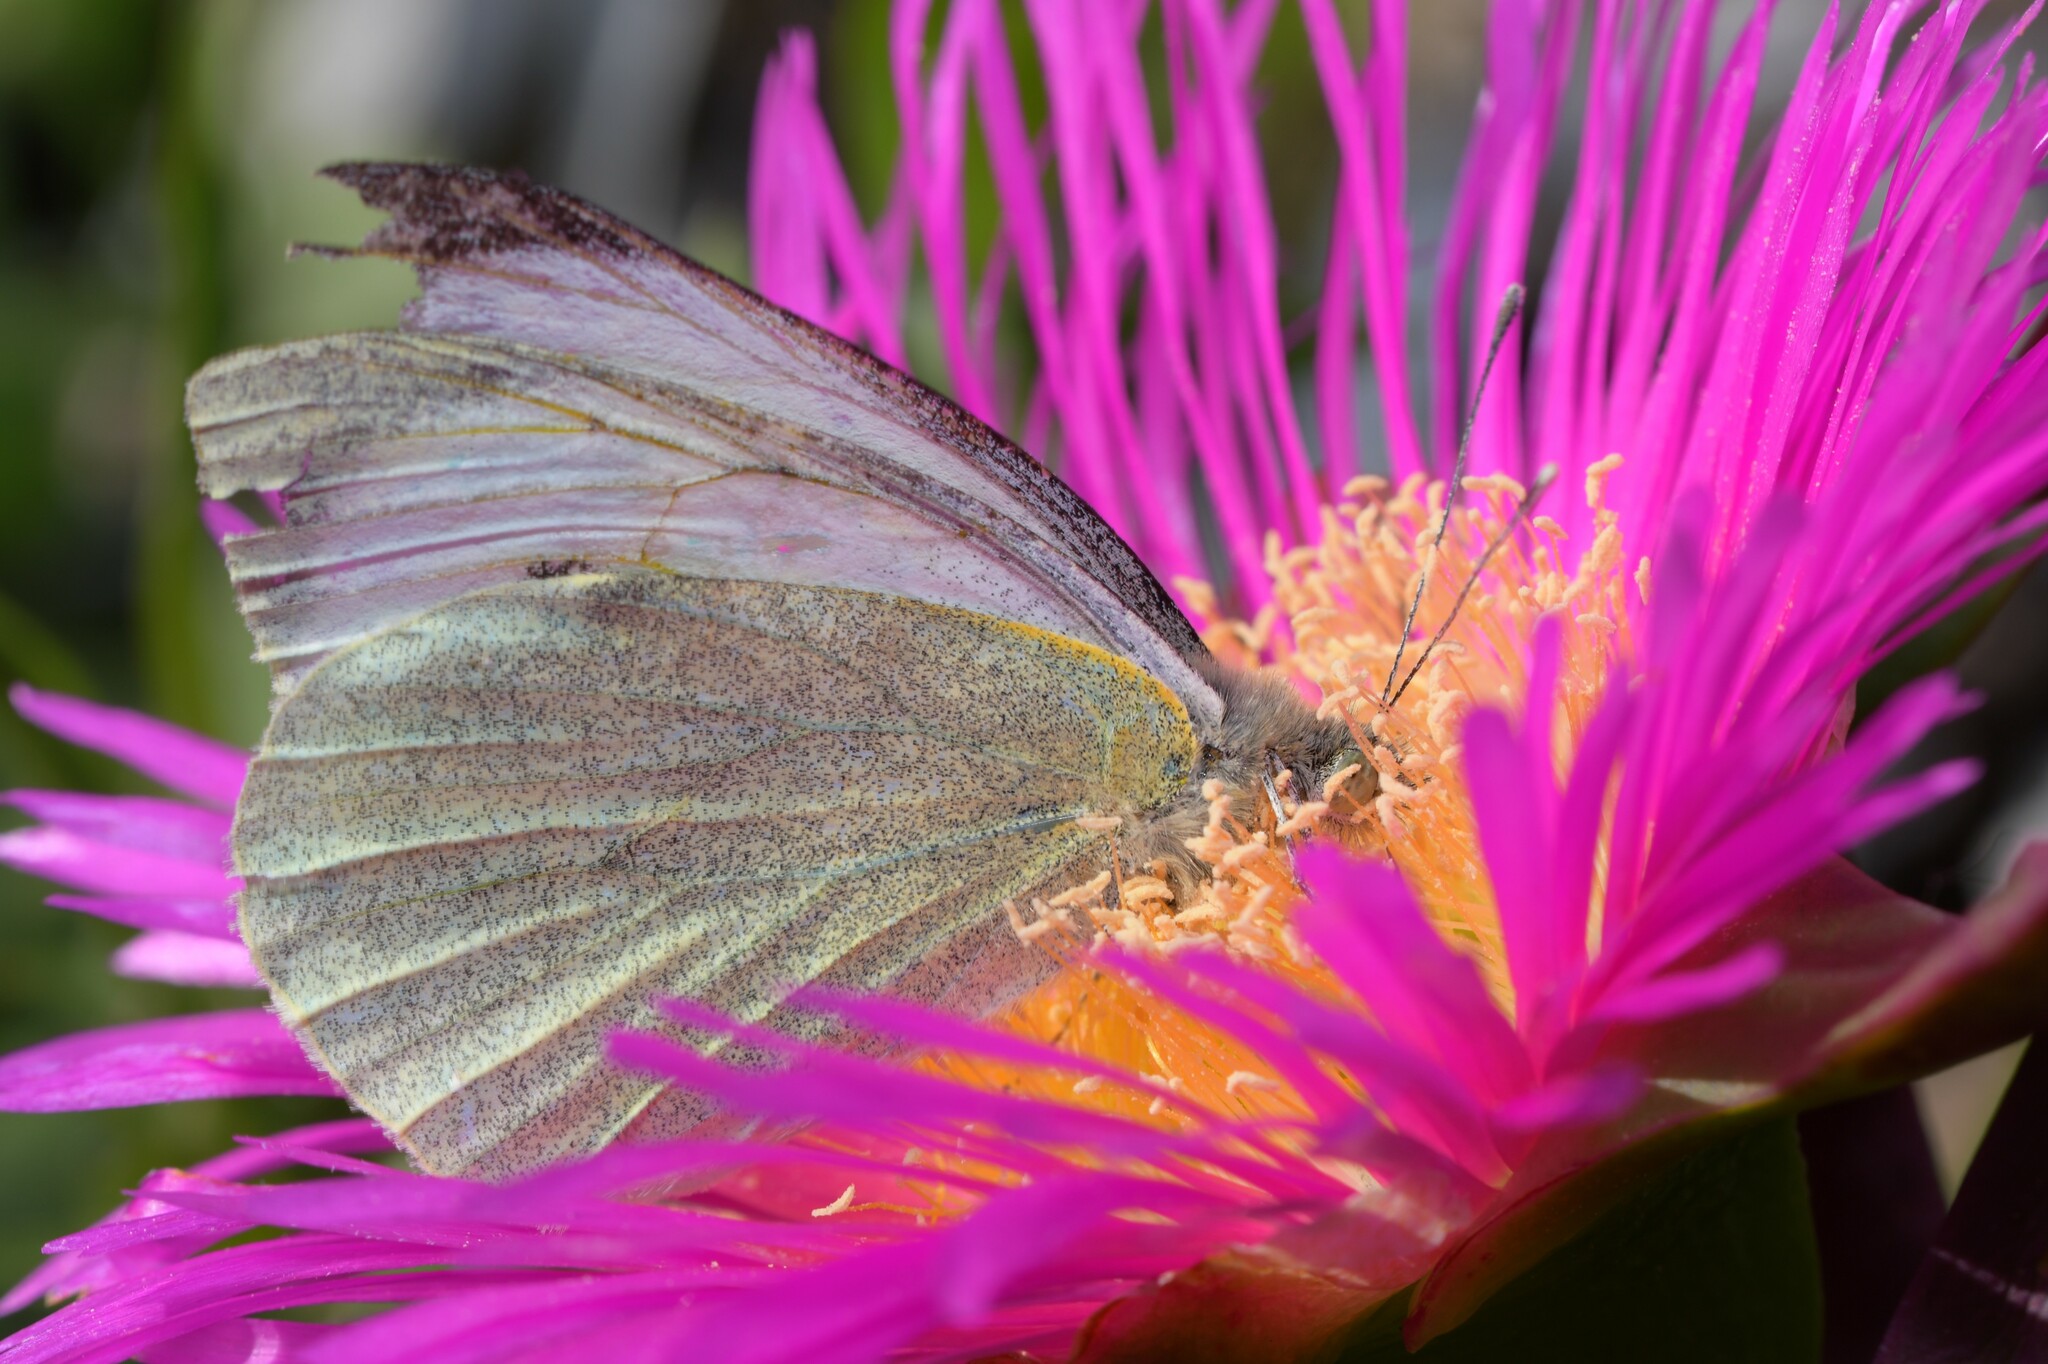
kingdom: Animalia
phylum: Arthropoda
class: Insecta
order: Lepidoptera
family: Pieridae
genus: Pieris
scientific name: Pieris brassicae
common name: Large white
